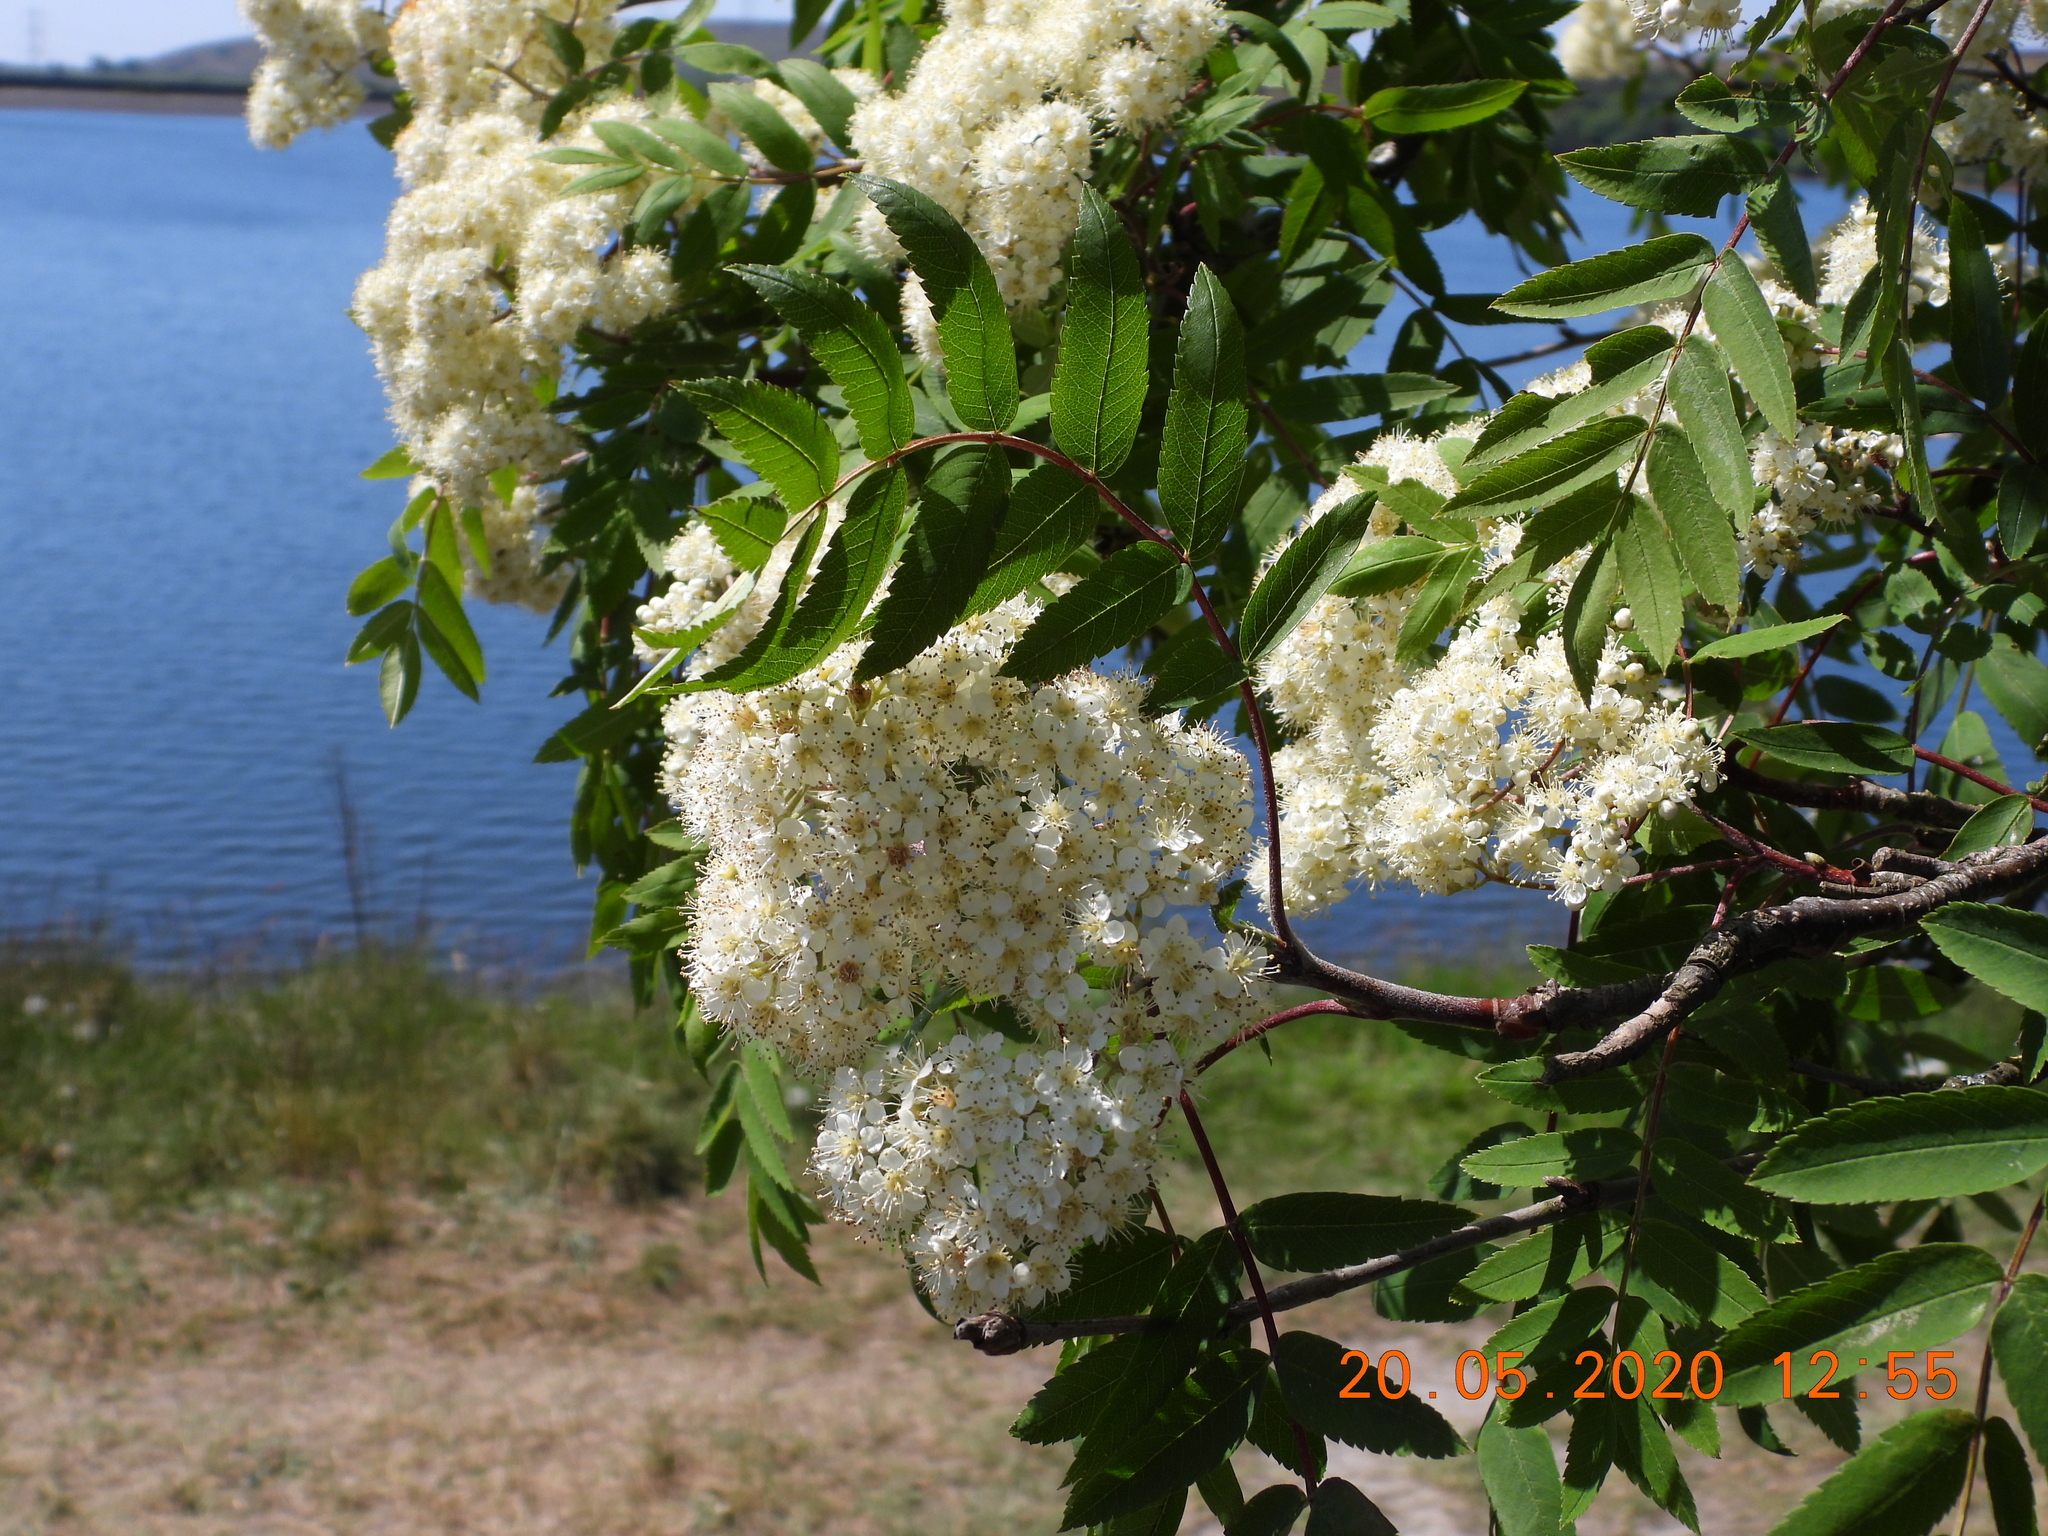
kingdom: Plantae
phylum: Tracheophyta
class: Magnoliopsida
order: Rosales
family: Rosaceae
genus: Sorbus
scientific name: Sorbus aucuparia
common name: Rowan
